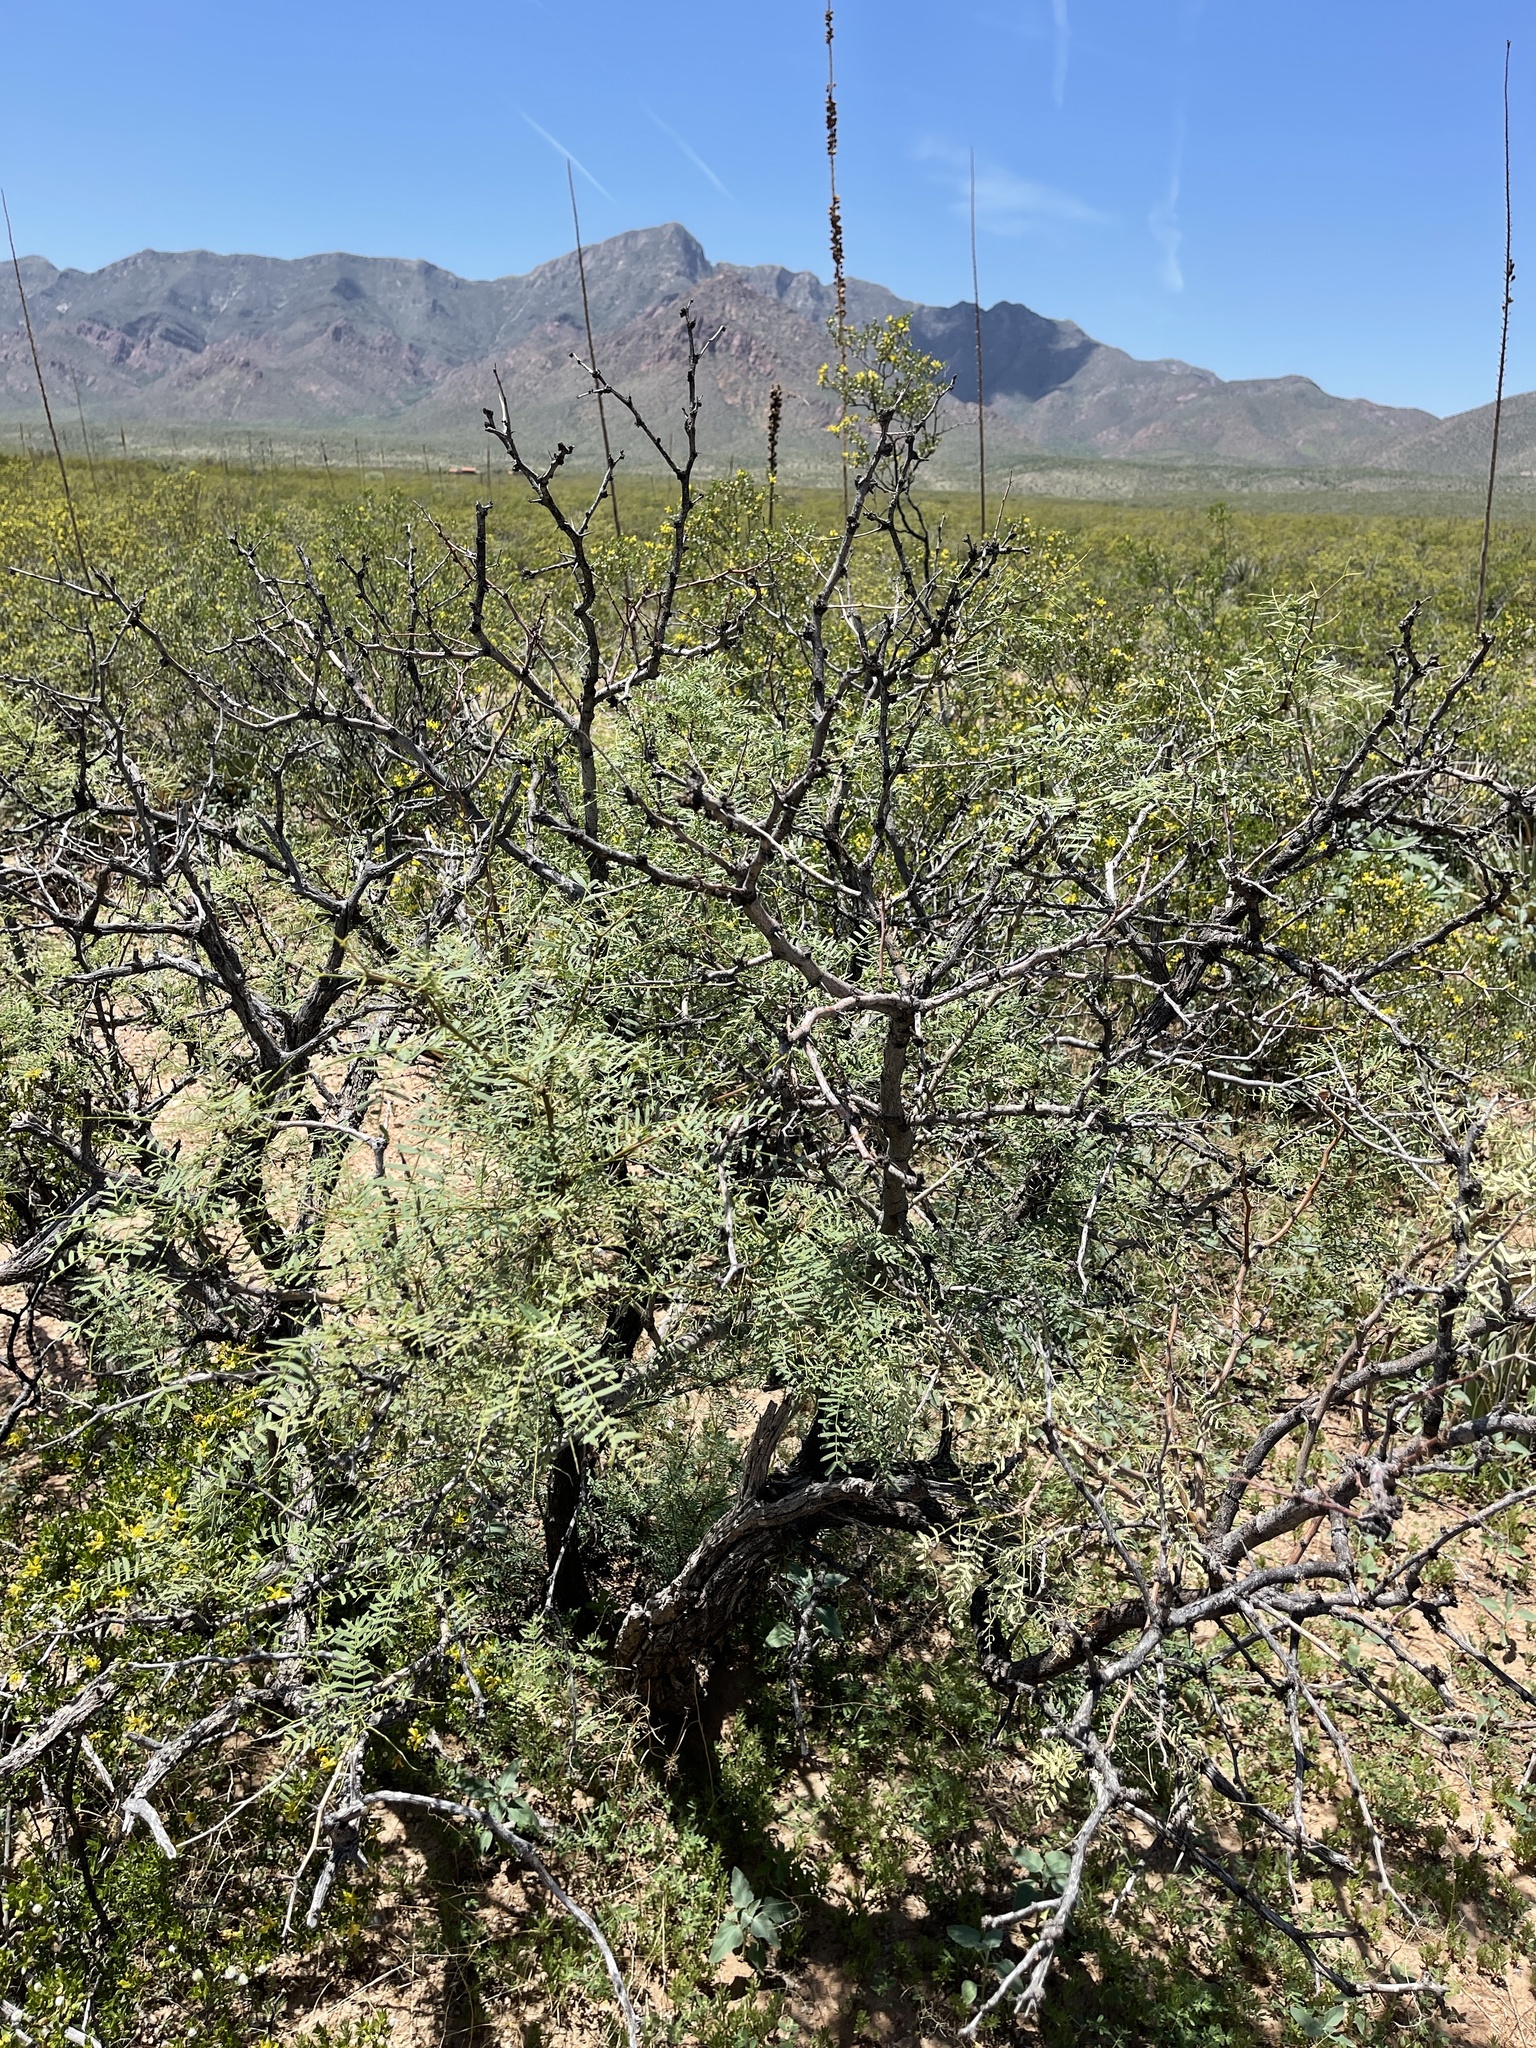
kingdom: Plantae
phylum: Tracheophyta
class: Magnoliopsida
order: Fabales
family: Fabaceae
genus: Prosopis
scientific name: Prosopis glandulosa
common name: Honey mesquite
